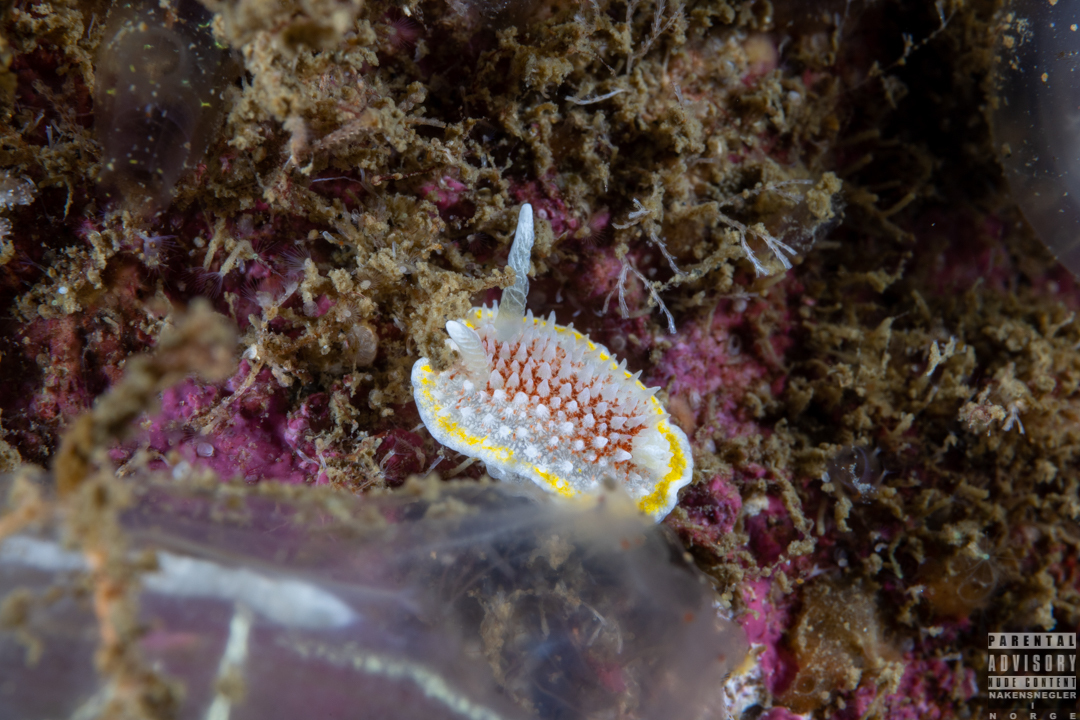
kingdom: Animalia
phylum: Mollusca
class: Gastropoda
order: Nudibranchia
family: Calycidorididae
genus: Diaphorodoris
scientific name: Diaphorodoris luteocincta
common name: Fried egg nudibranch
